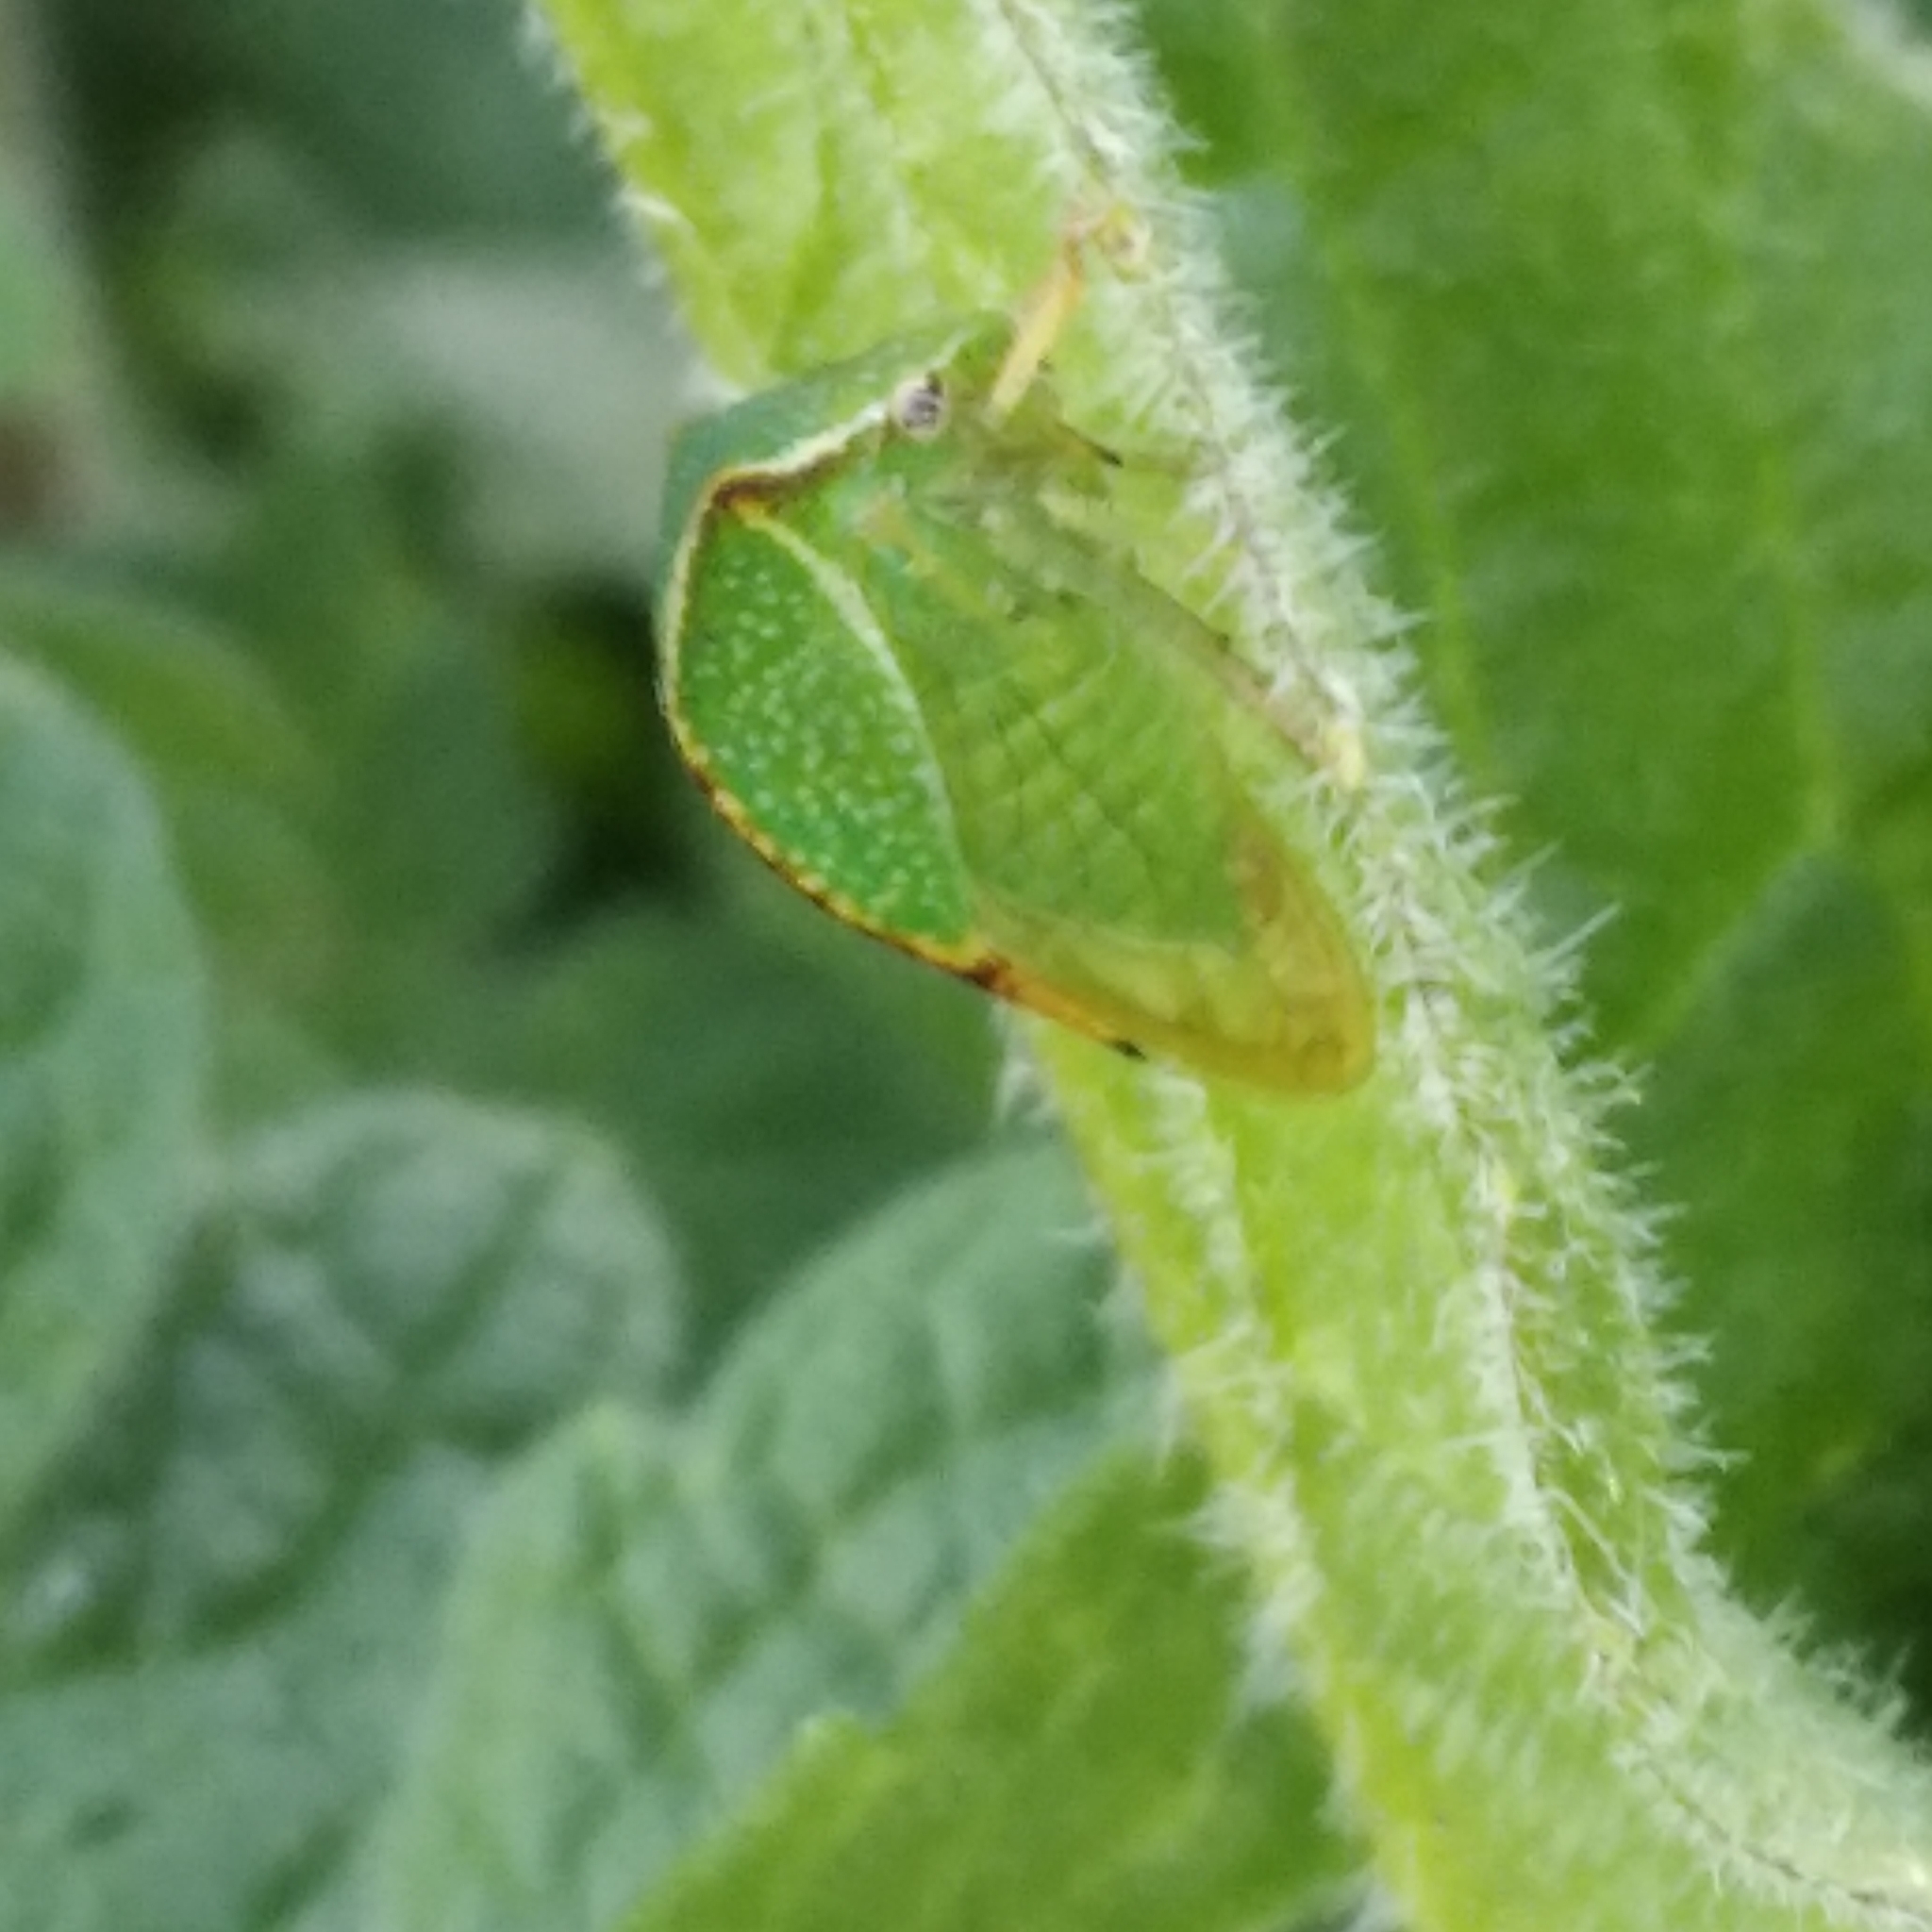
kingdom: Animalia
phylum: Arthropoda
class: Insecta
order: Hemiptera
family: Membracidae
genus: Stictocephala
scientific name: Stictocephala bisonia
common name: American buffalo treehopper
